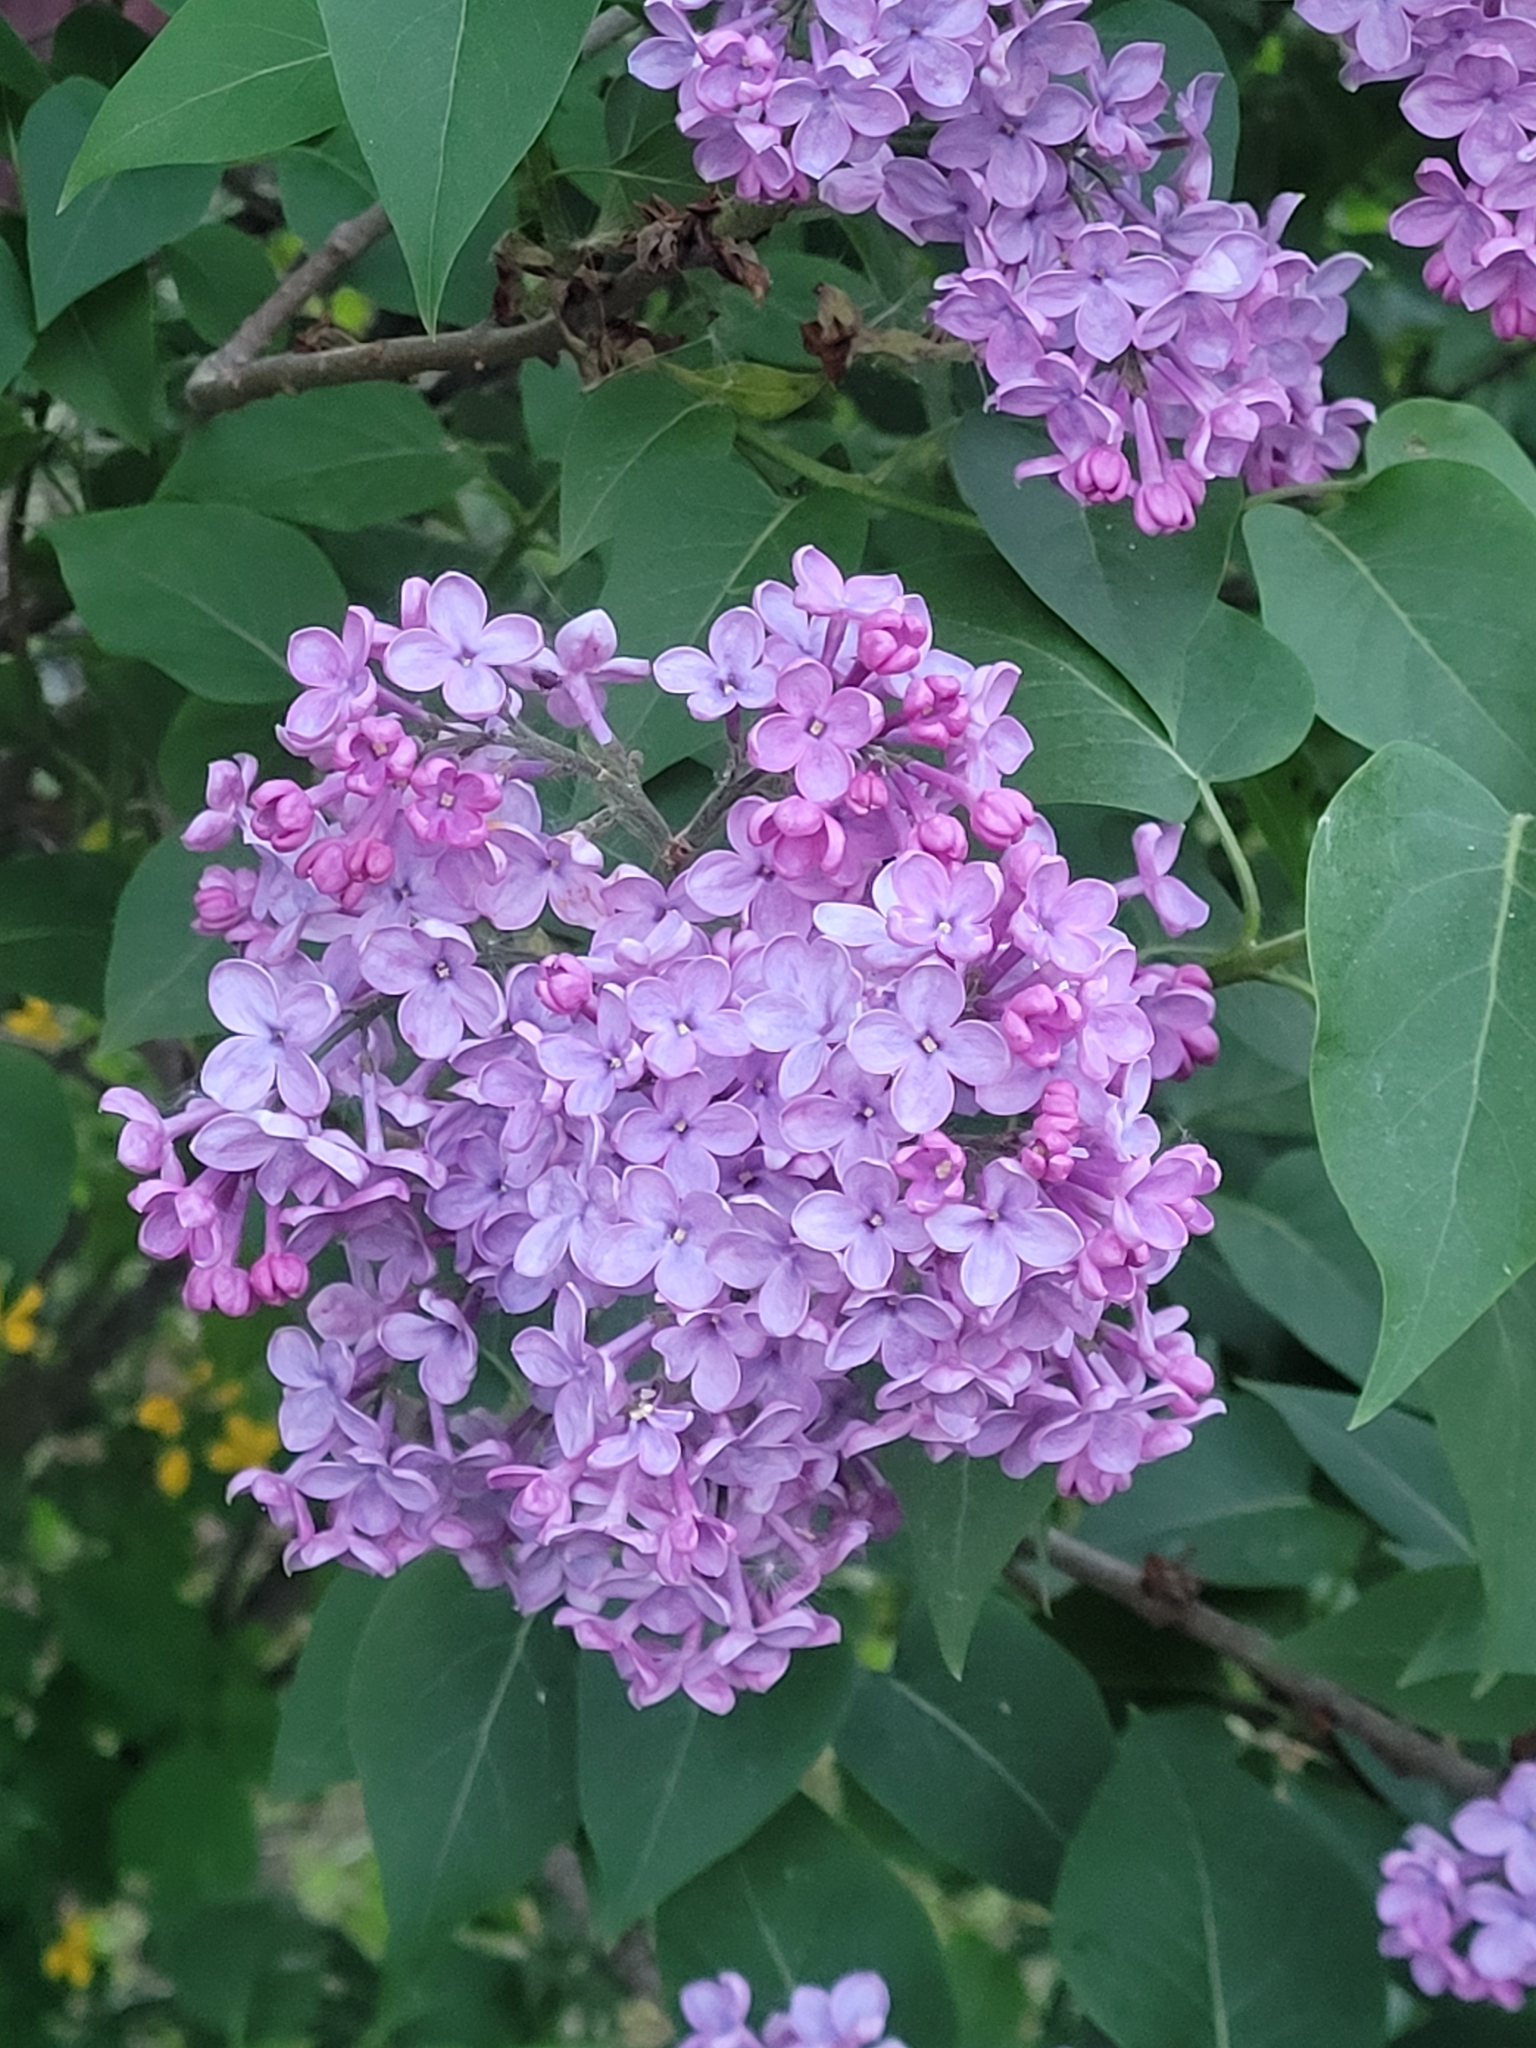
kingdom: Plantae
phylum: Tracheophyta
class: Magnoliopsida
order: Lamiales
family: Oleaceae
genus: Syringa
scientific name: Syringa vulgaris
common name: Common lilac
